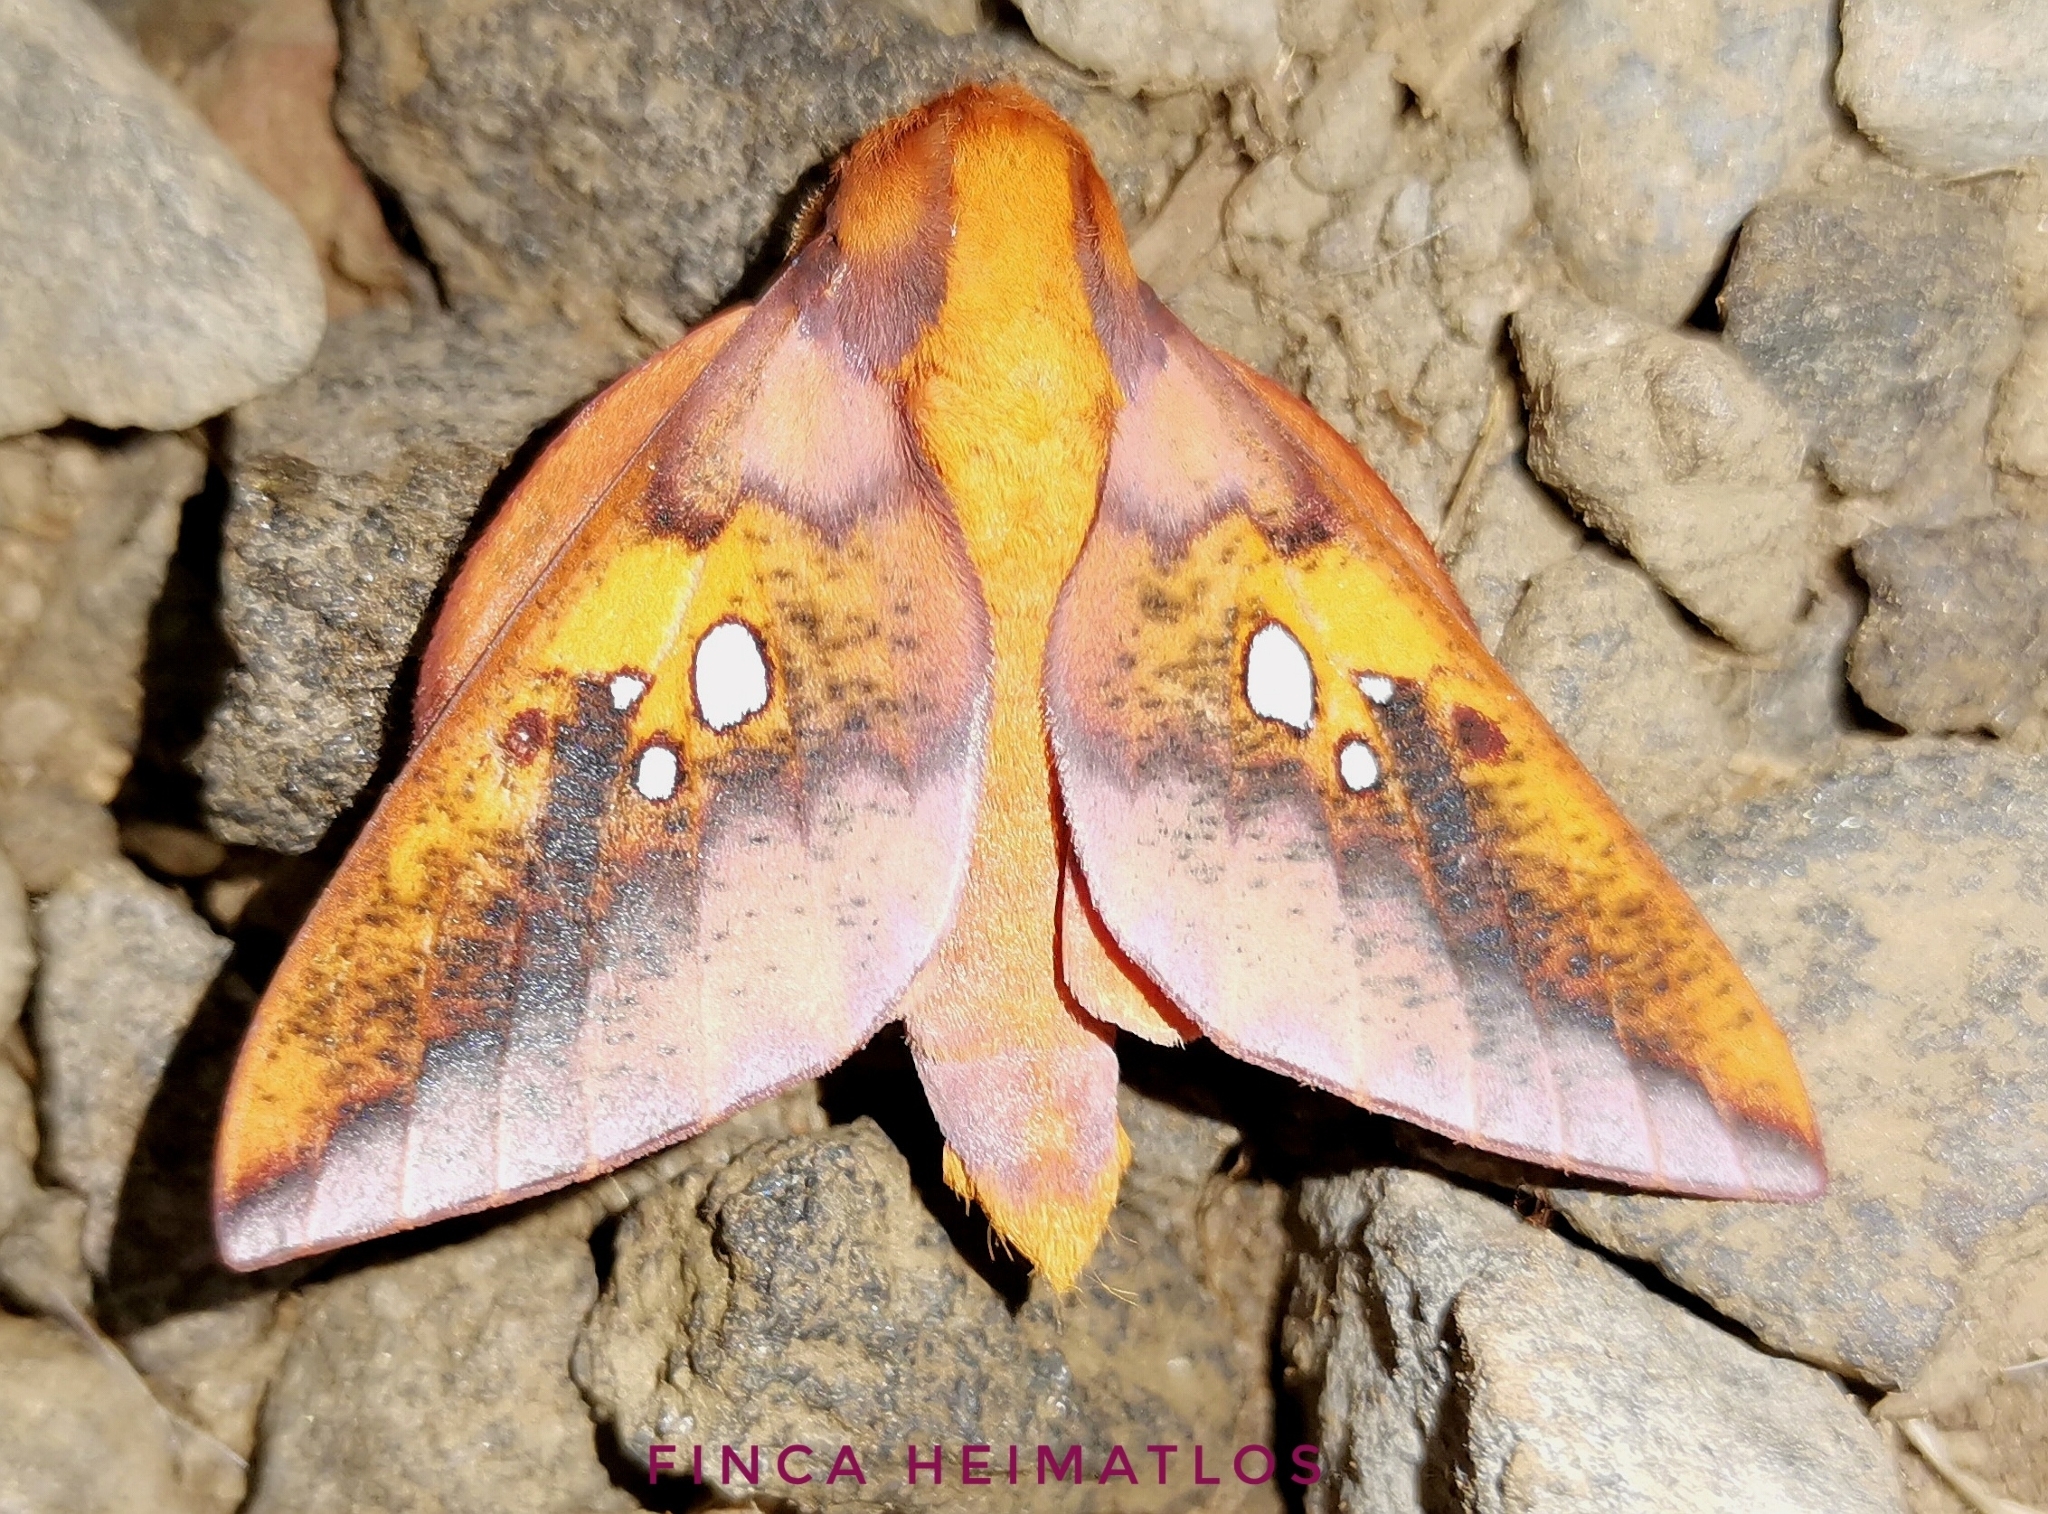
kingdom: Animalia
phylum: Arthropoda
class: Insecta
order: Lepidoptera
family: Saturniidae
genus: Adelowalkeria
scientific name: Adelowalkeria witti
